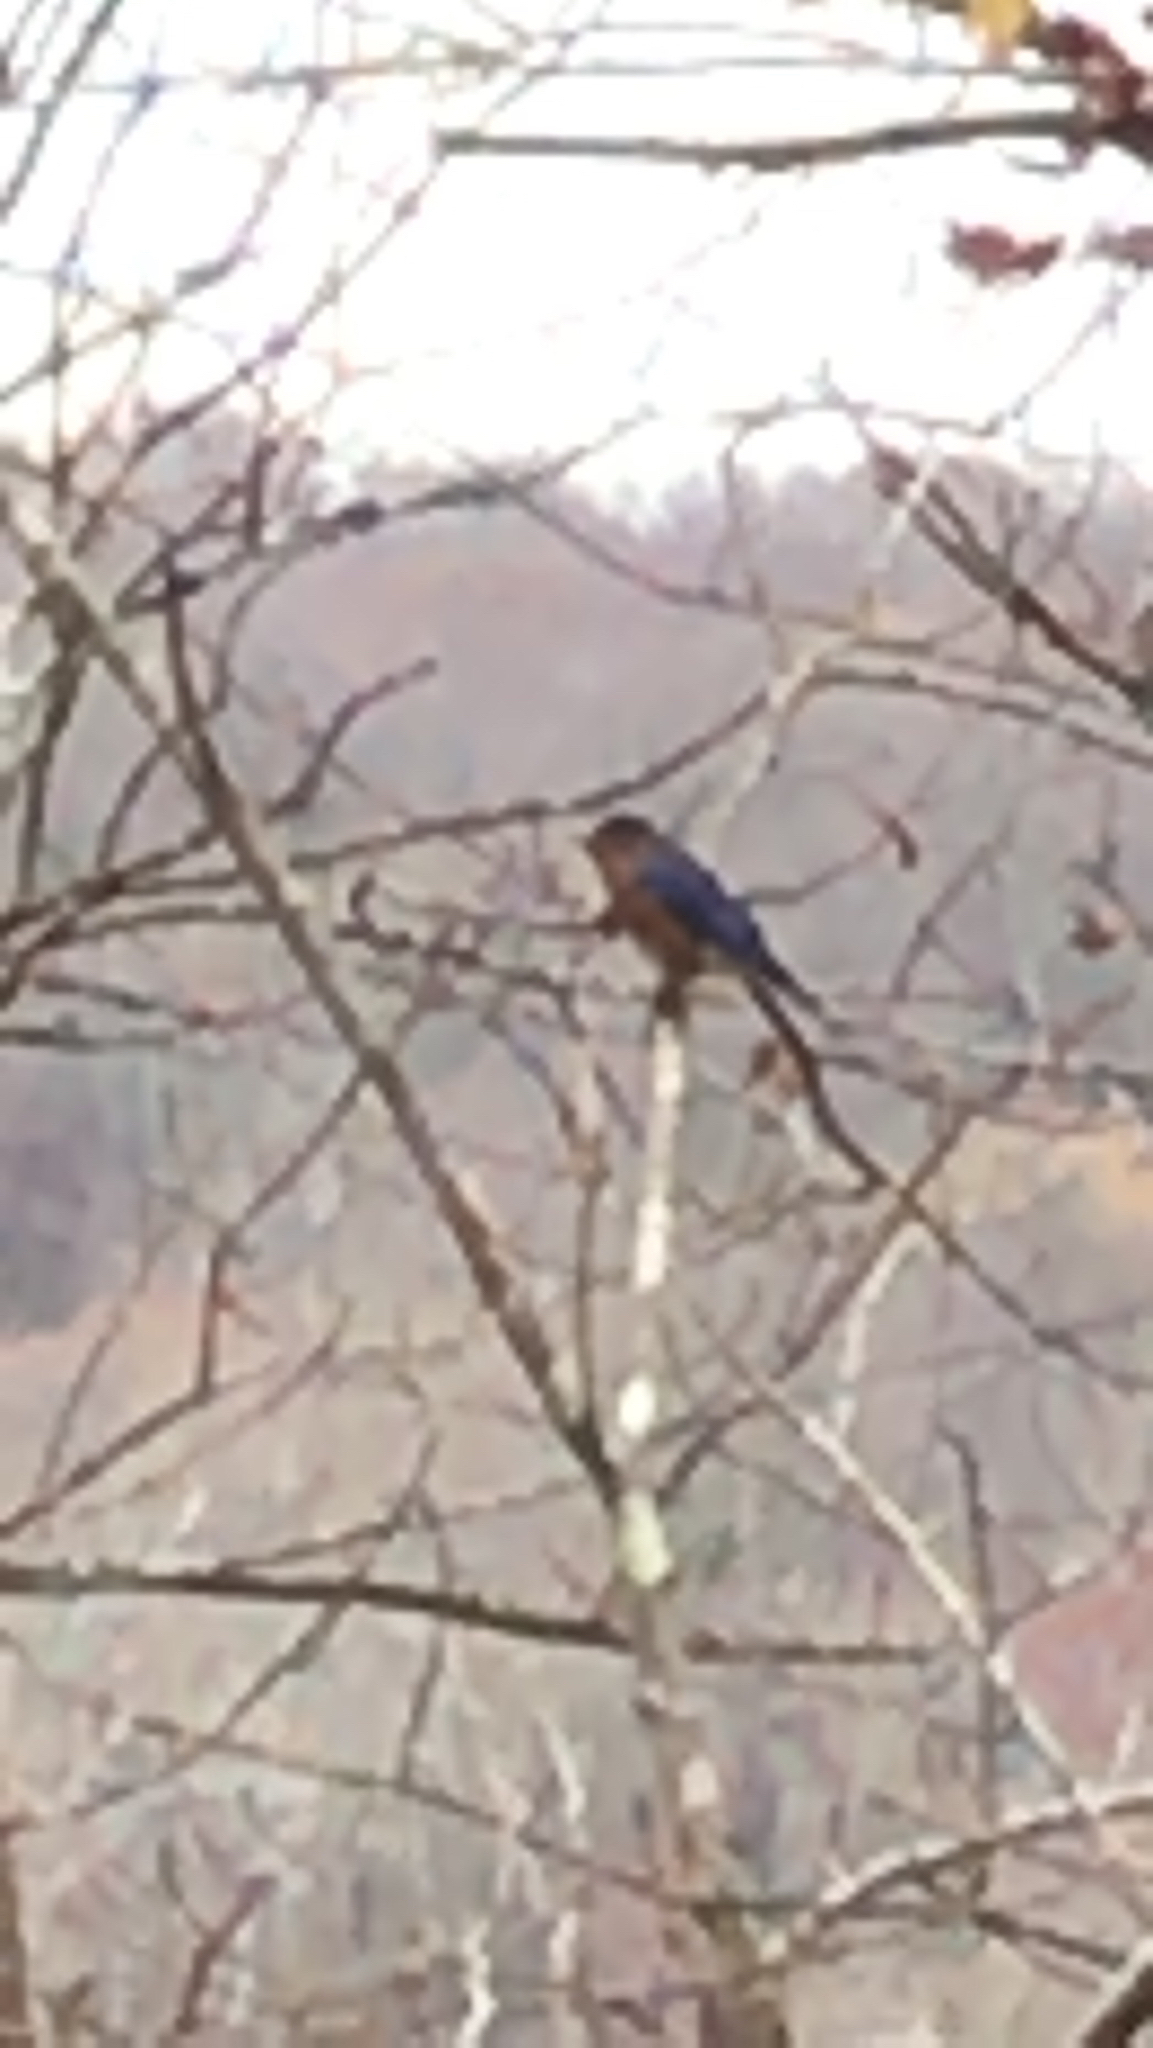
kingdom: Animalia
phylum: Chordata
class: Aves
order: Passeriformes
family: Turdidae
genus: Sialia
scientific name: Sialia sialis
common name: Eastern bluebird
